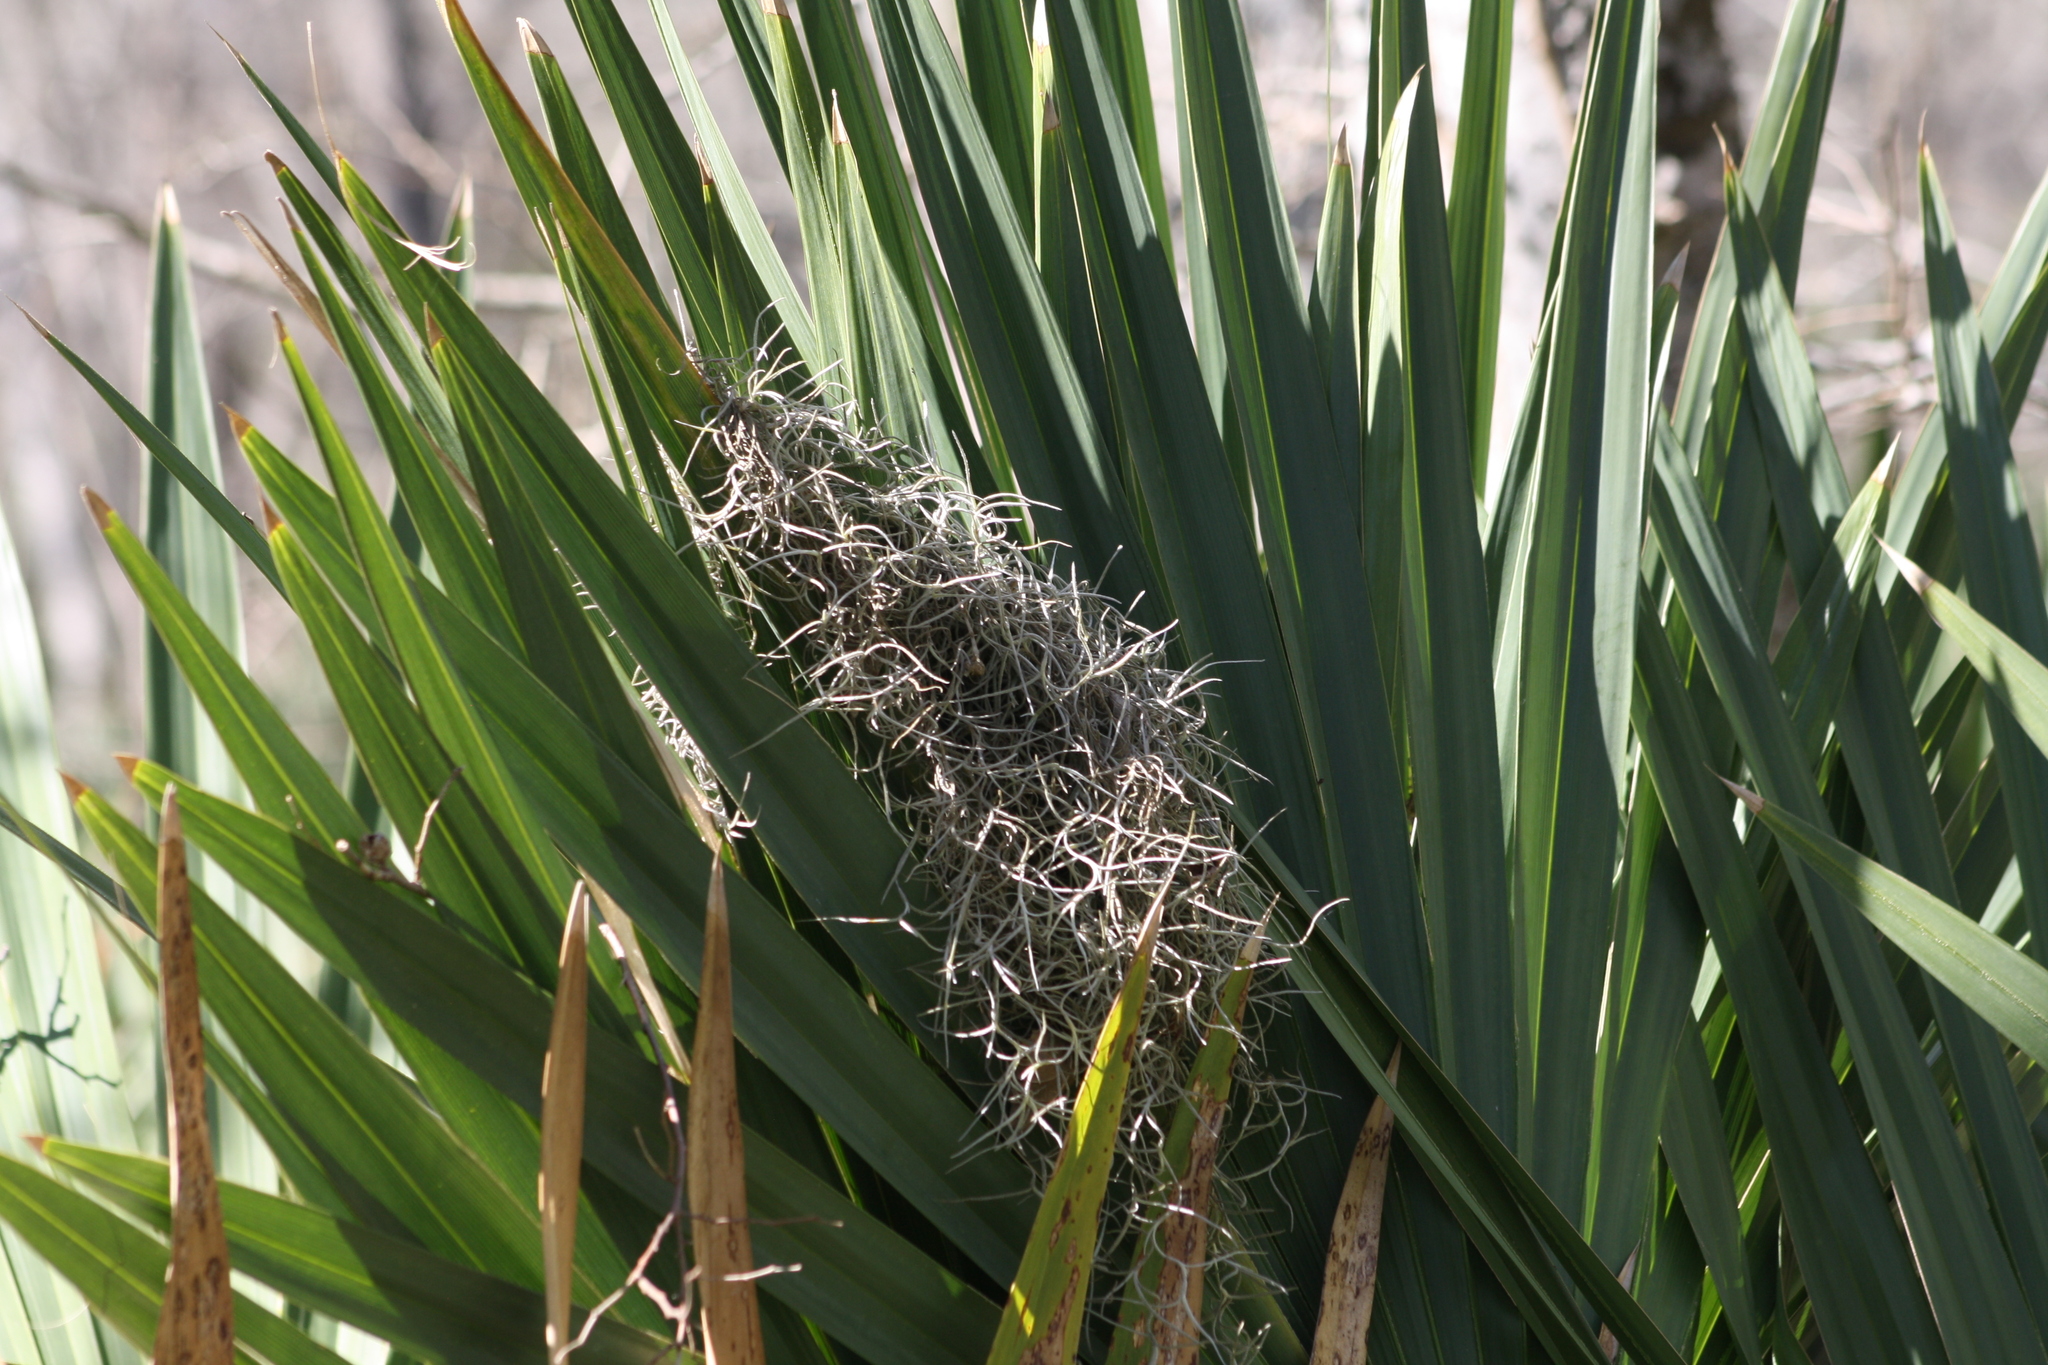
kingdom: Plantae
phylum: Tracheophyta
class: Liliopsida
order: Poales
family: Bromeliaceae
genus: Tillandsia
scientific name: Tillandsia usneoides
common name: Spanish moss
